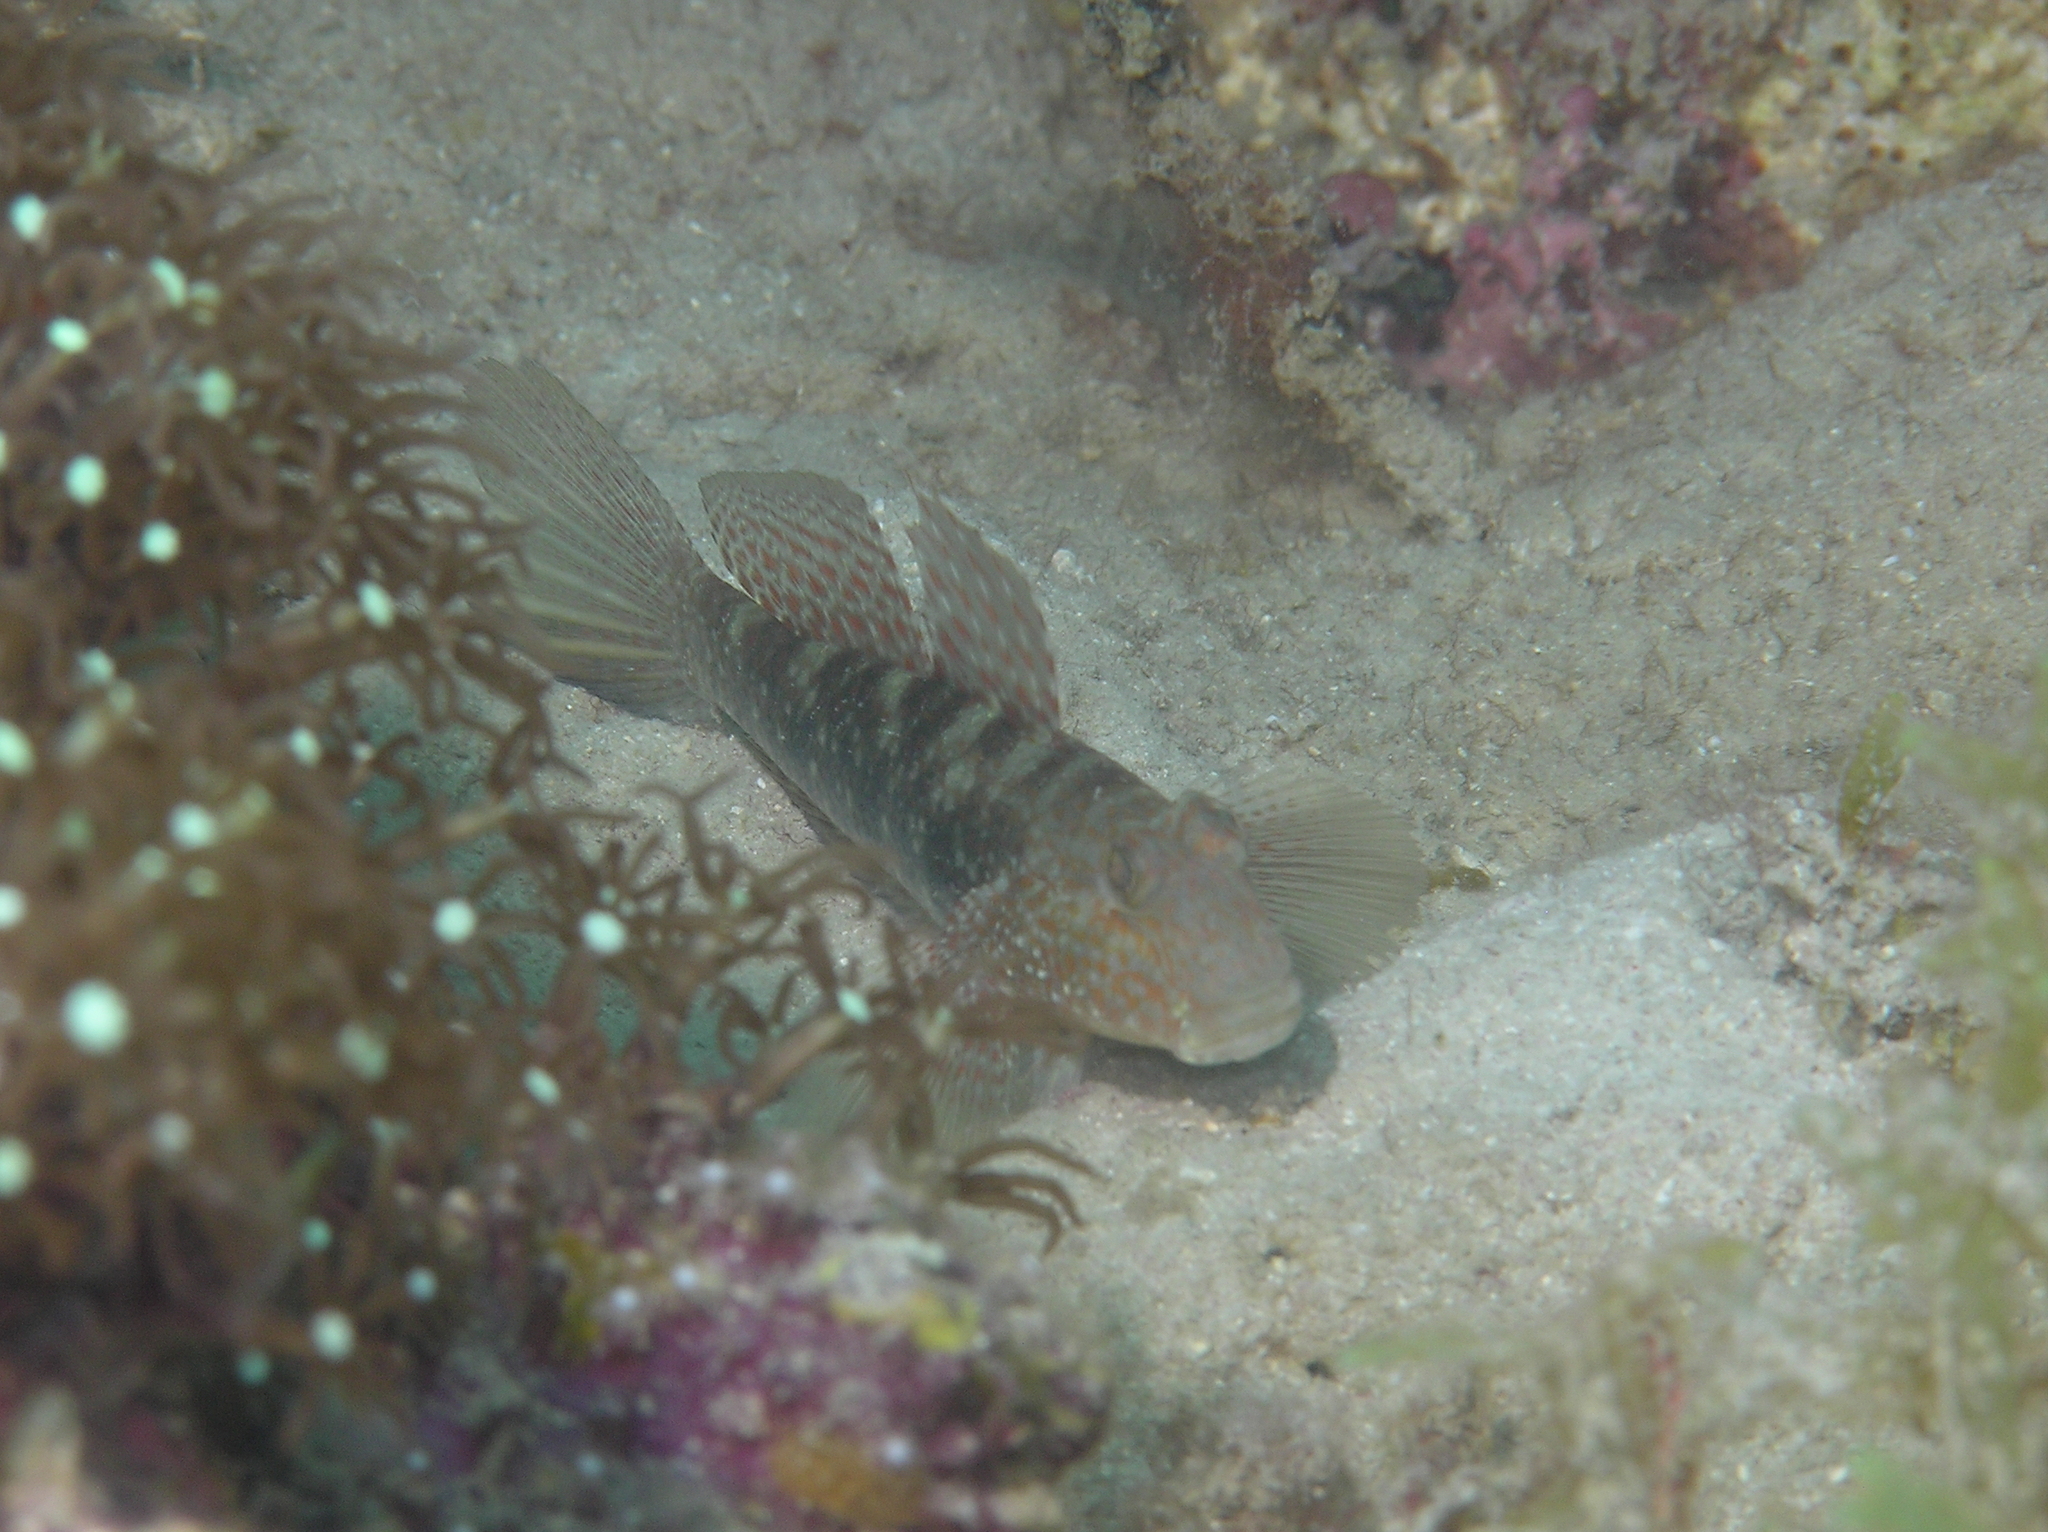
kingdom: Animalia
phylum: Chordata
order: Perciformes
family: Gobiidae
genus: Exyrias
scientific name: Exyrias belissimus
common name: Mud reef-goby
